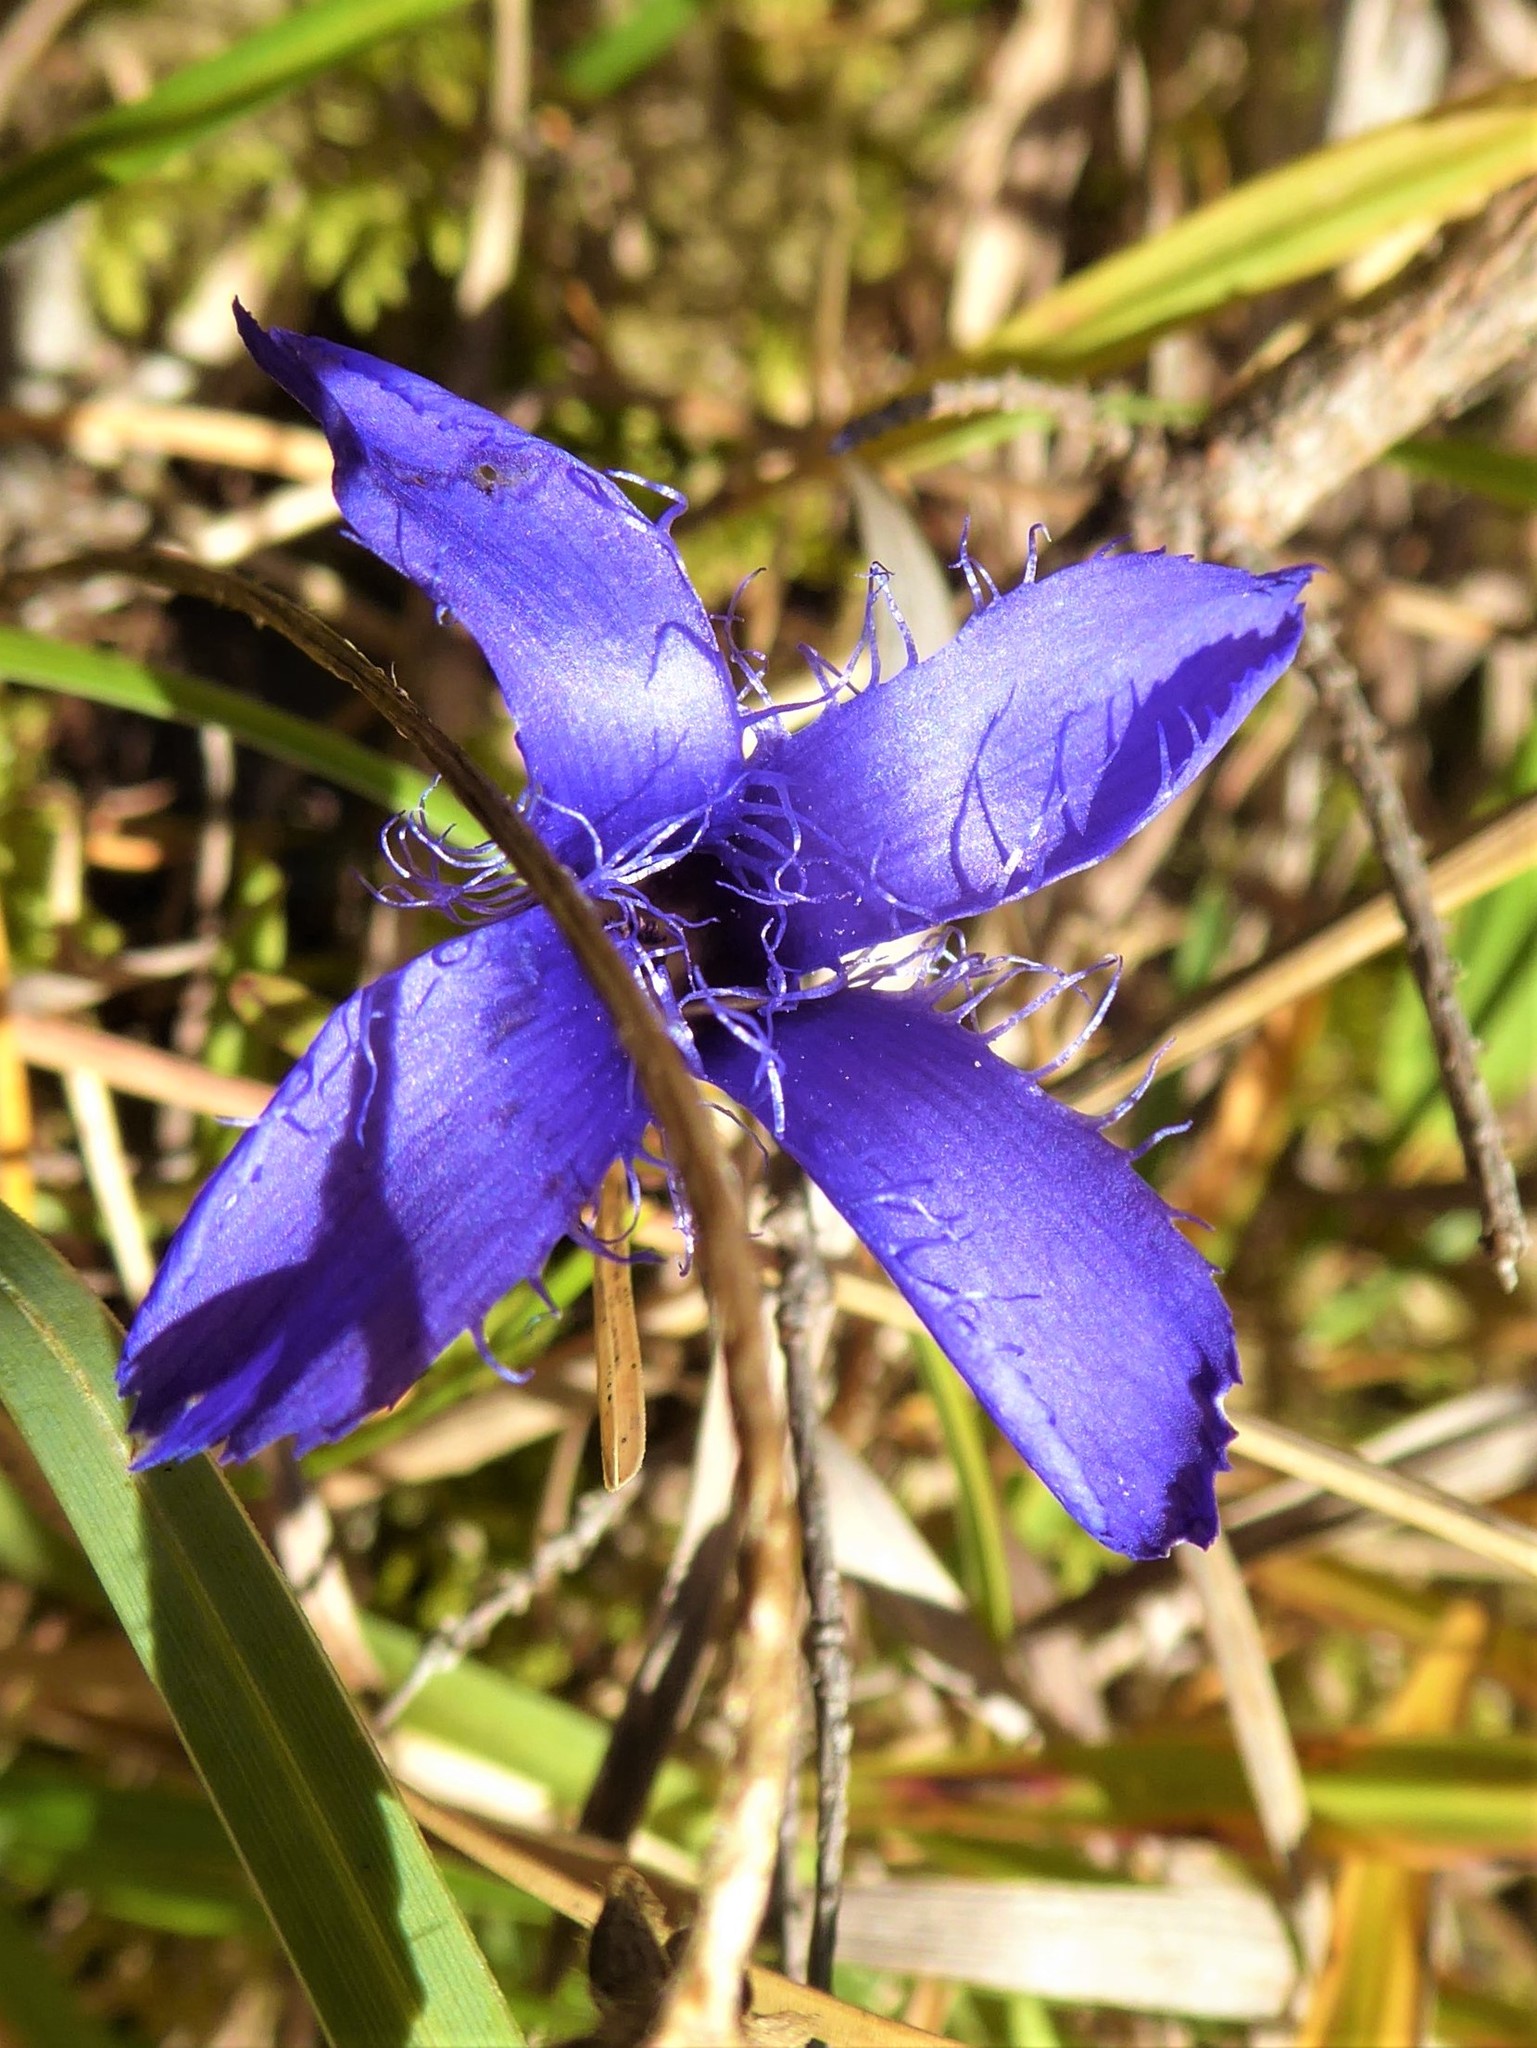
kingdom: Plantae
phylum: Tracheophyta
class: Magnoliopsida
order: Gentianales
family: Gentianaceae
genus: Gentianopsis
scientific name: Gentianopsis ciliata
